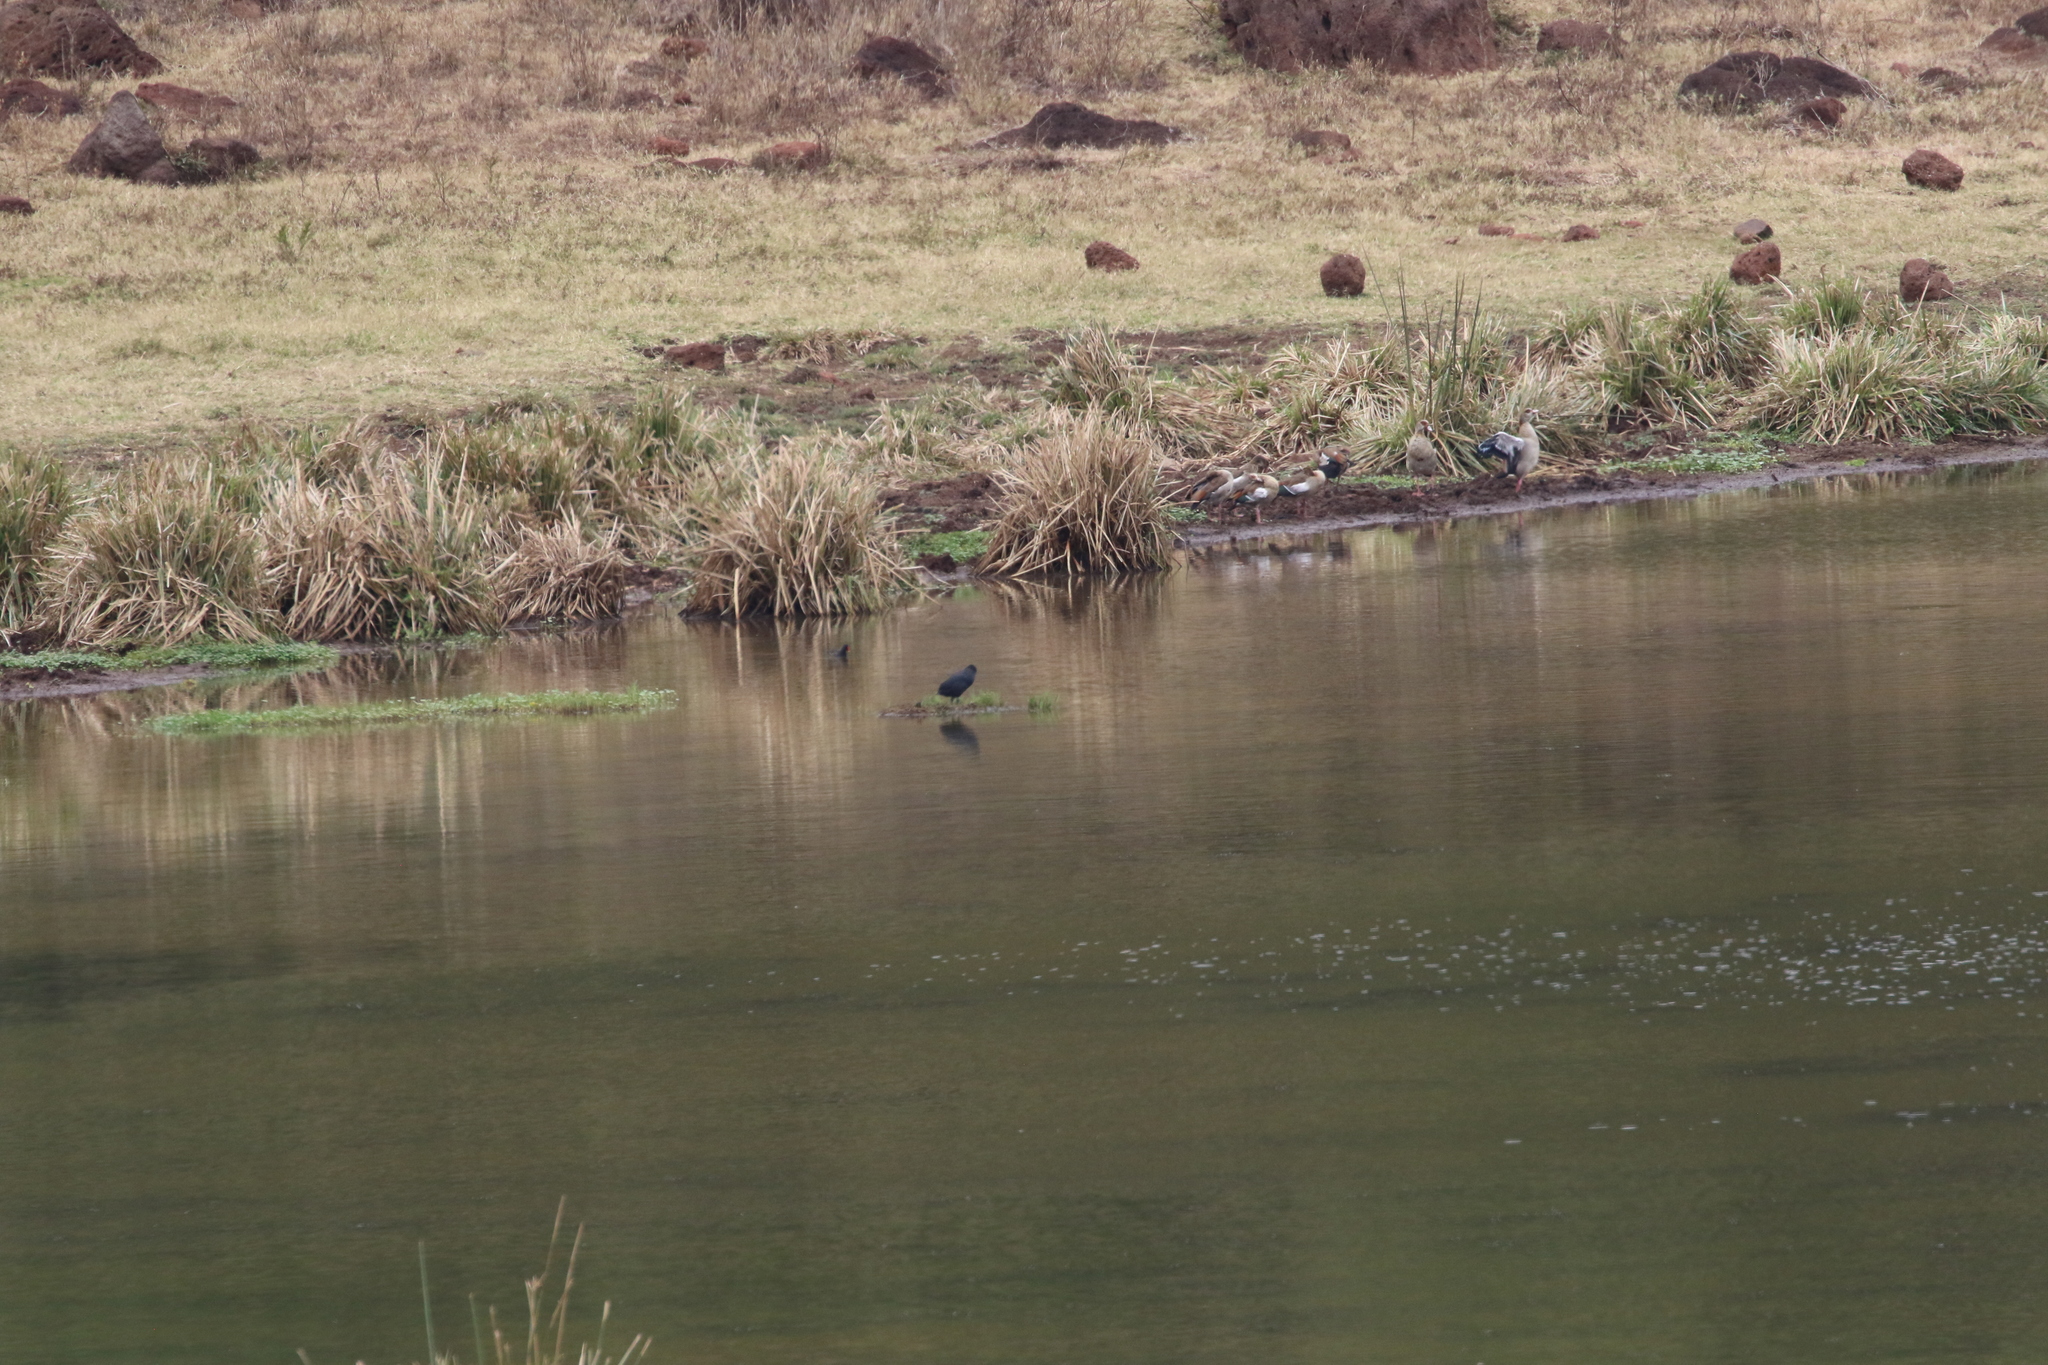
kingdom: Animalia
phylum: Chordata
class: Aves
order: Anseriformes
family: Anatidae
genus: Alopochen
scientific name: Alopochen aegyptiaca
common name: Egyptian goose
